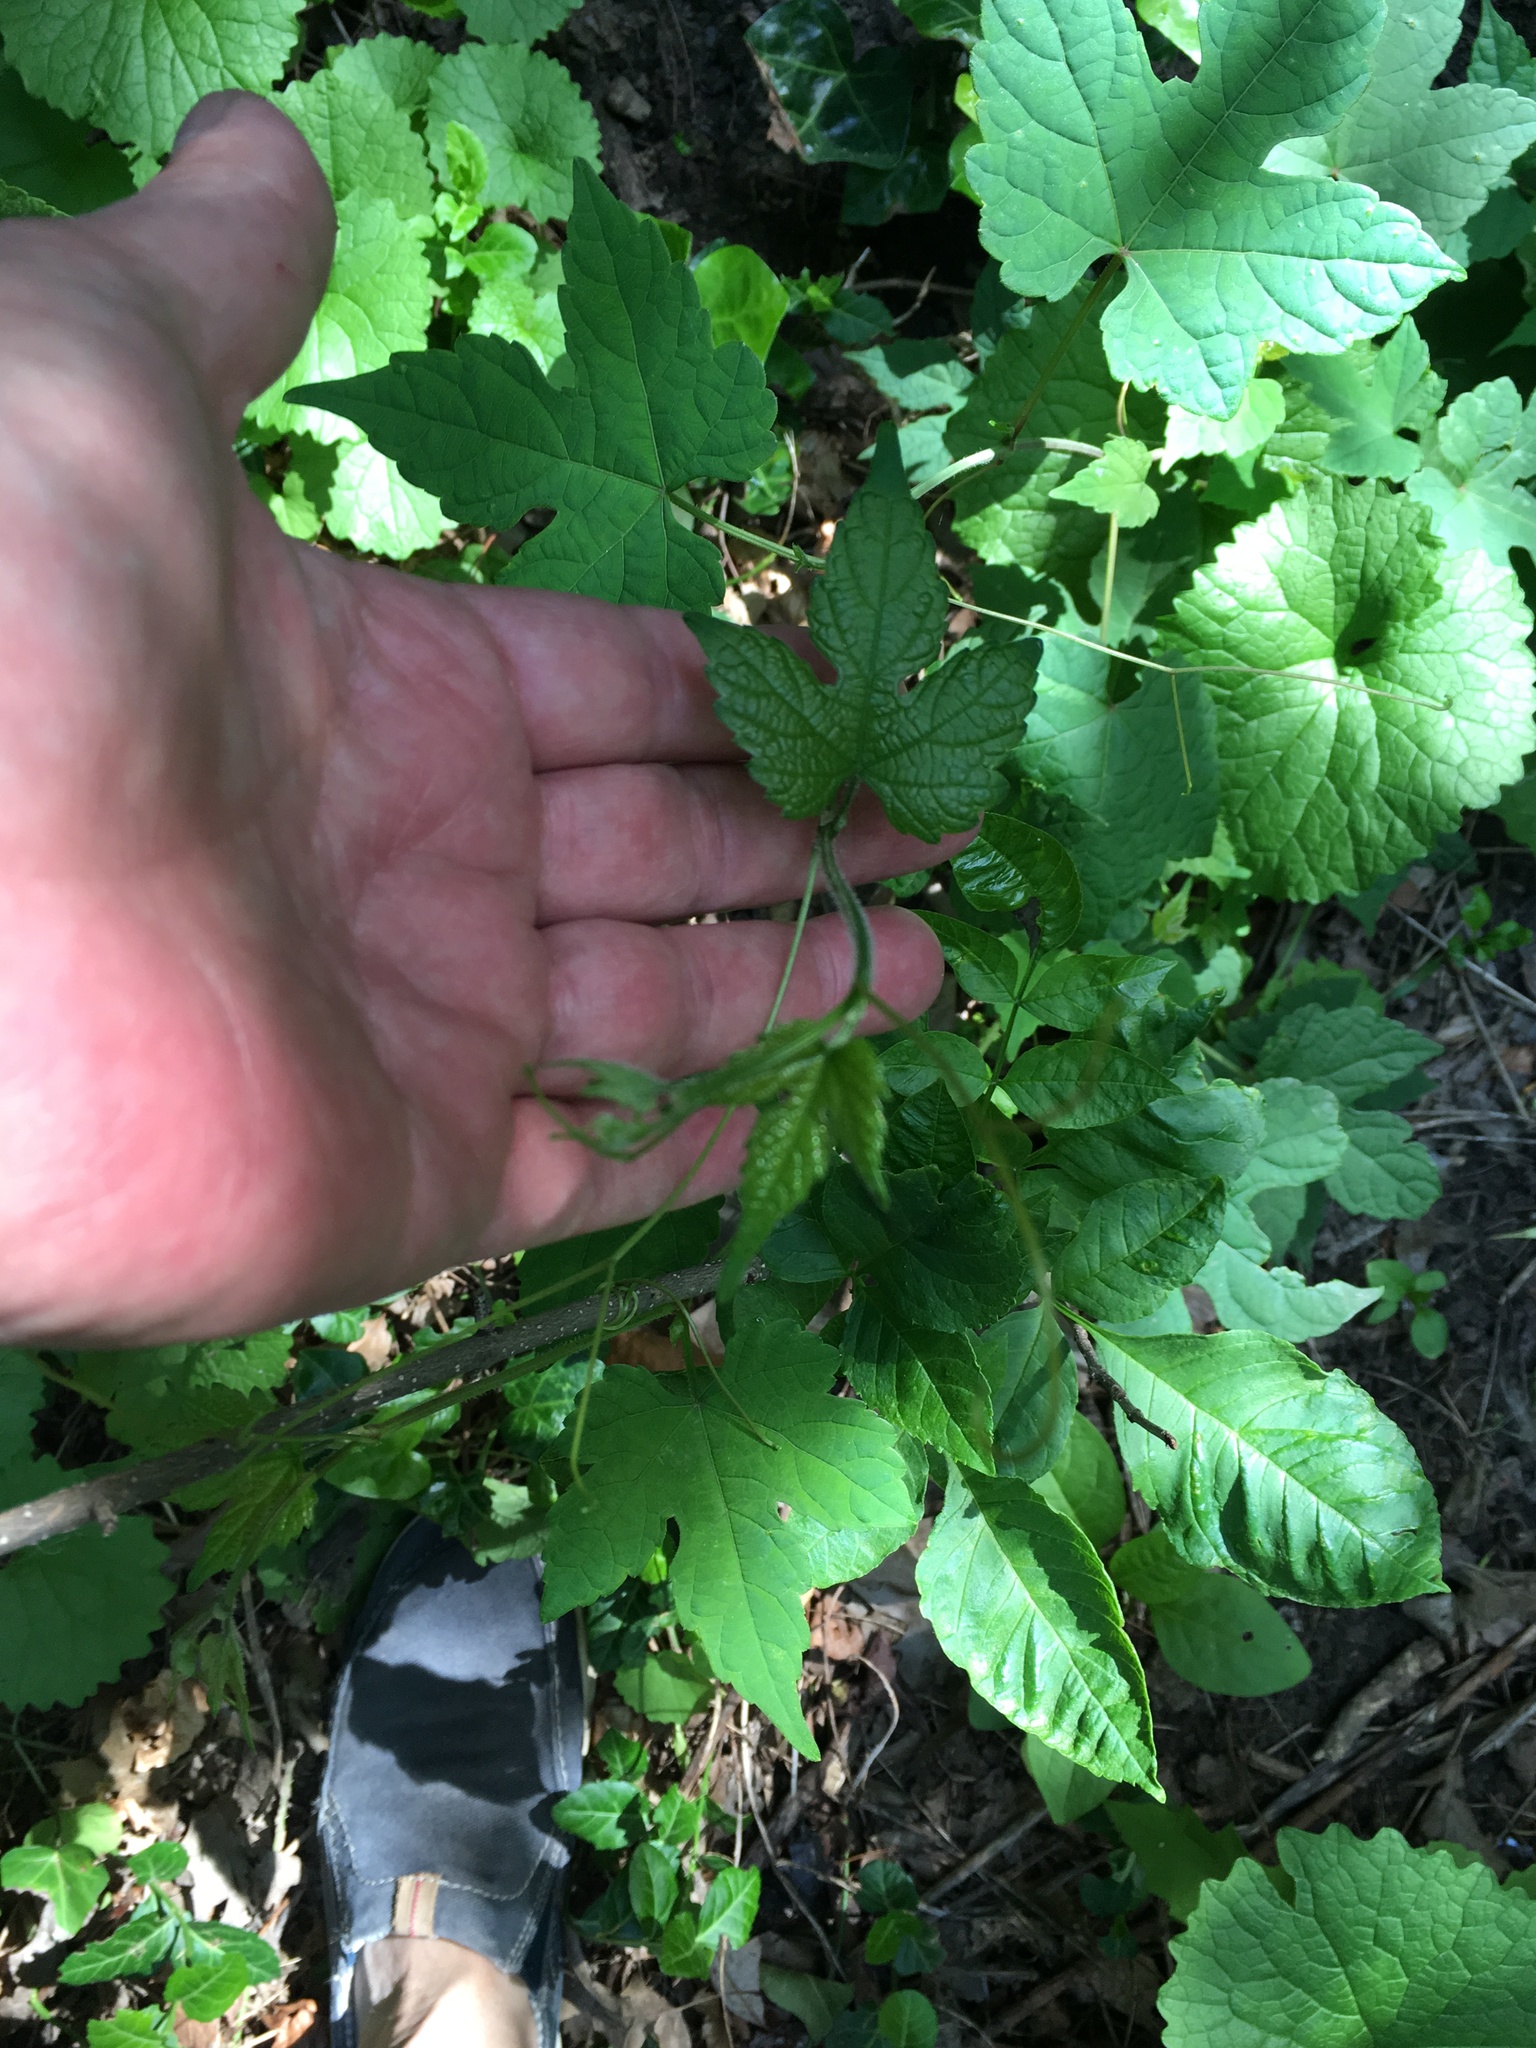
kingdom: Plantae
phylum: Tracheophyta
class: Magnoliopsida
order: Vitales
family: Vitaceae
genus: Ampelopsis
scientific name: Ampelopsis glandulosa
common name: Amur peppervine
